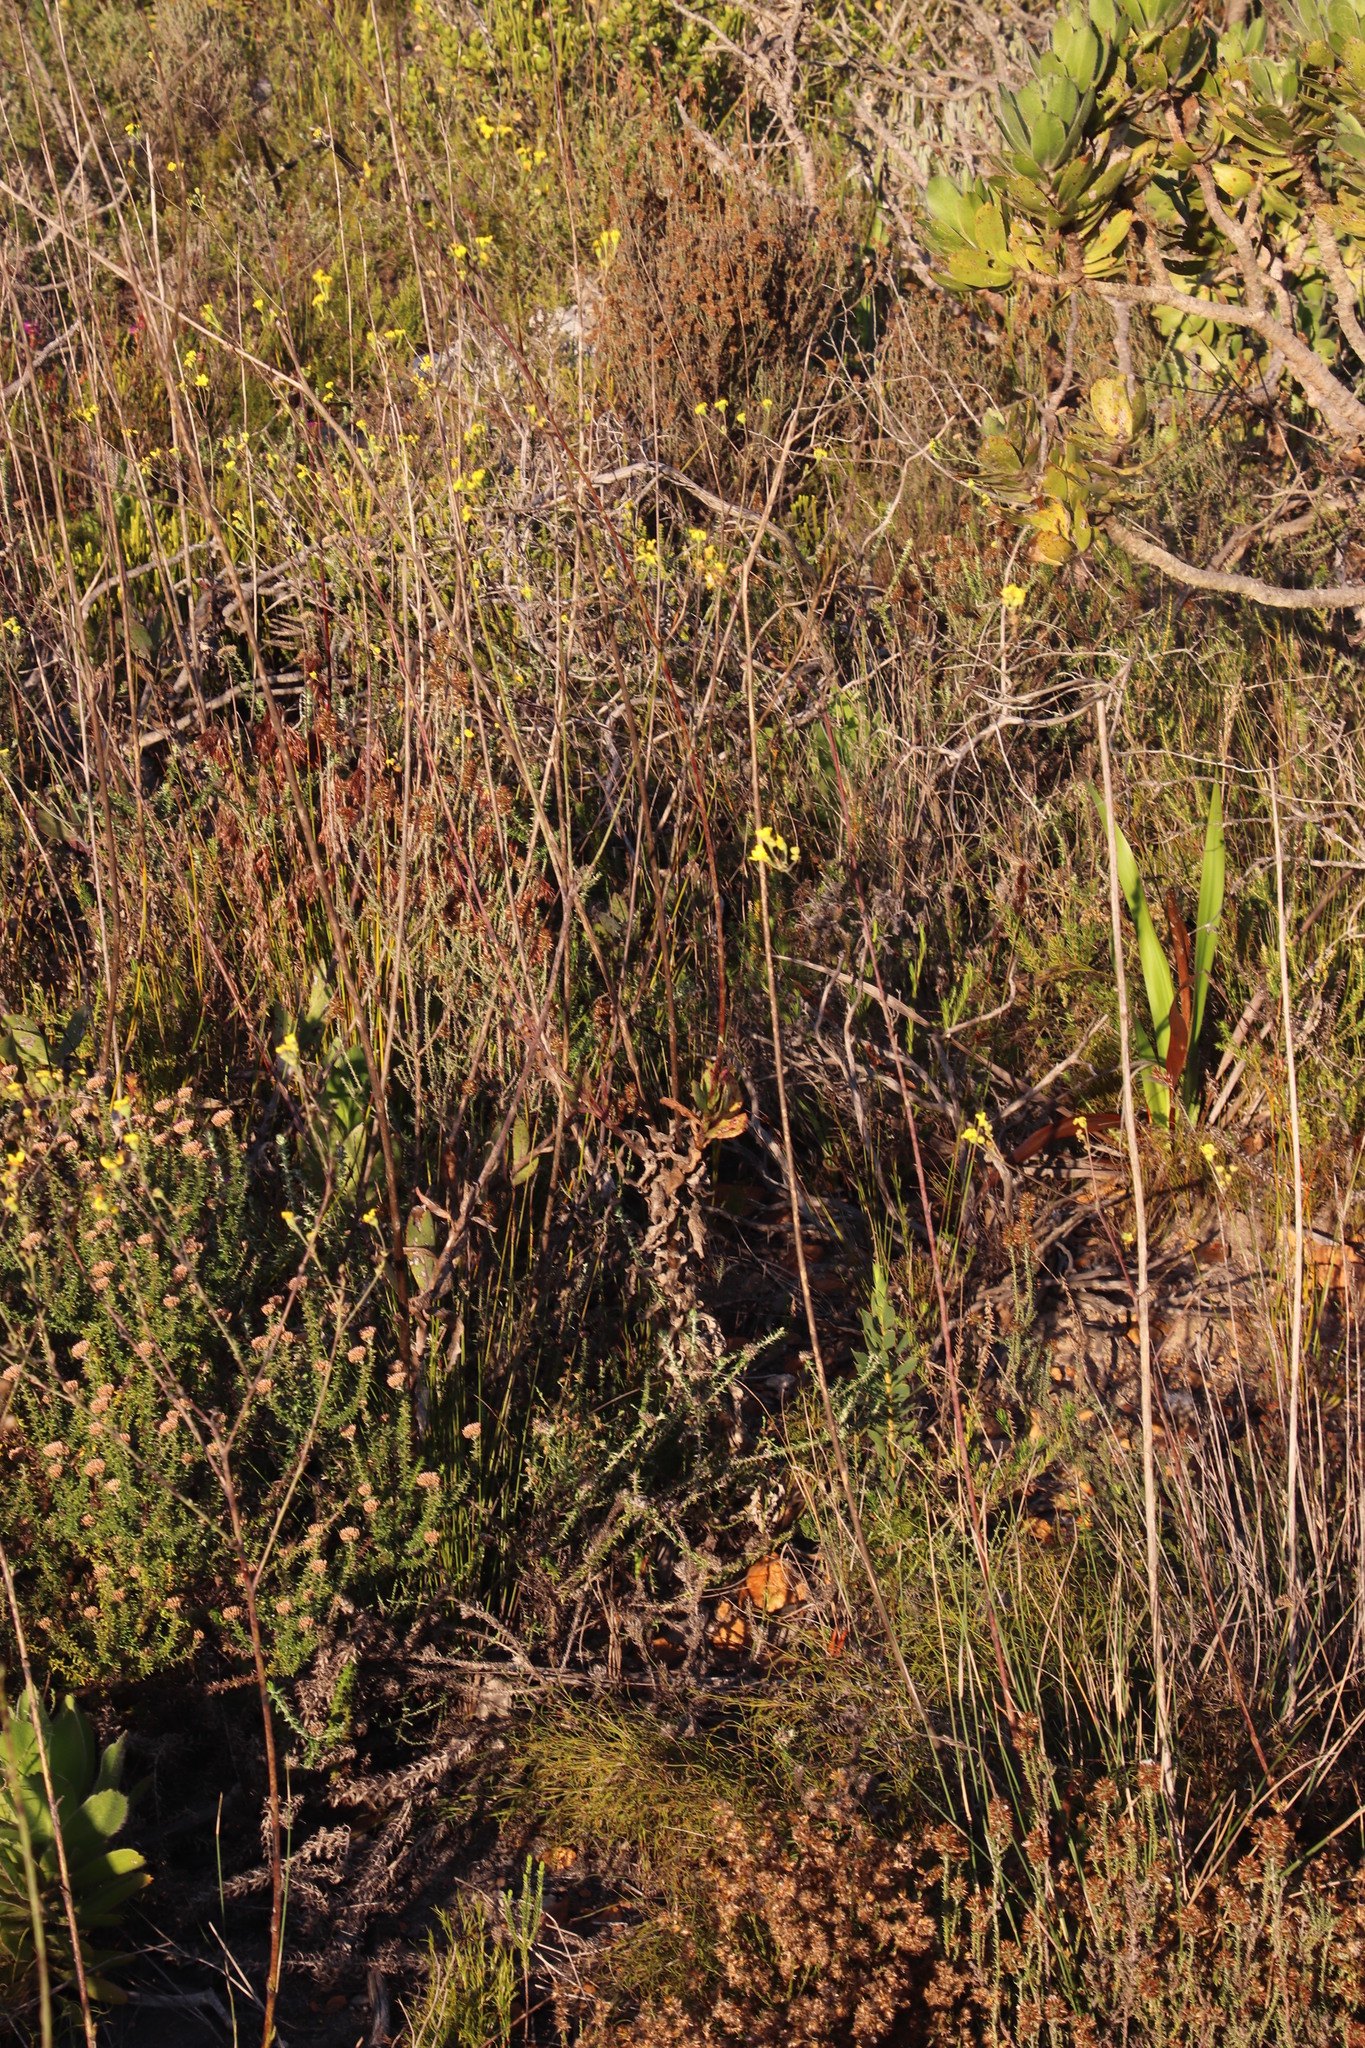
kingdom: Plantae
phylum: Tracheophyta
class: Magnoliopsida
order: Asterales
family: Asteraceae
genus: Othonna
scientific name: Othonna quinquedentata
